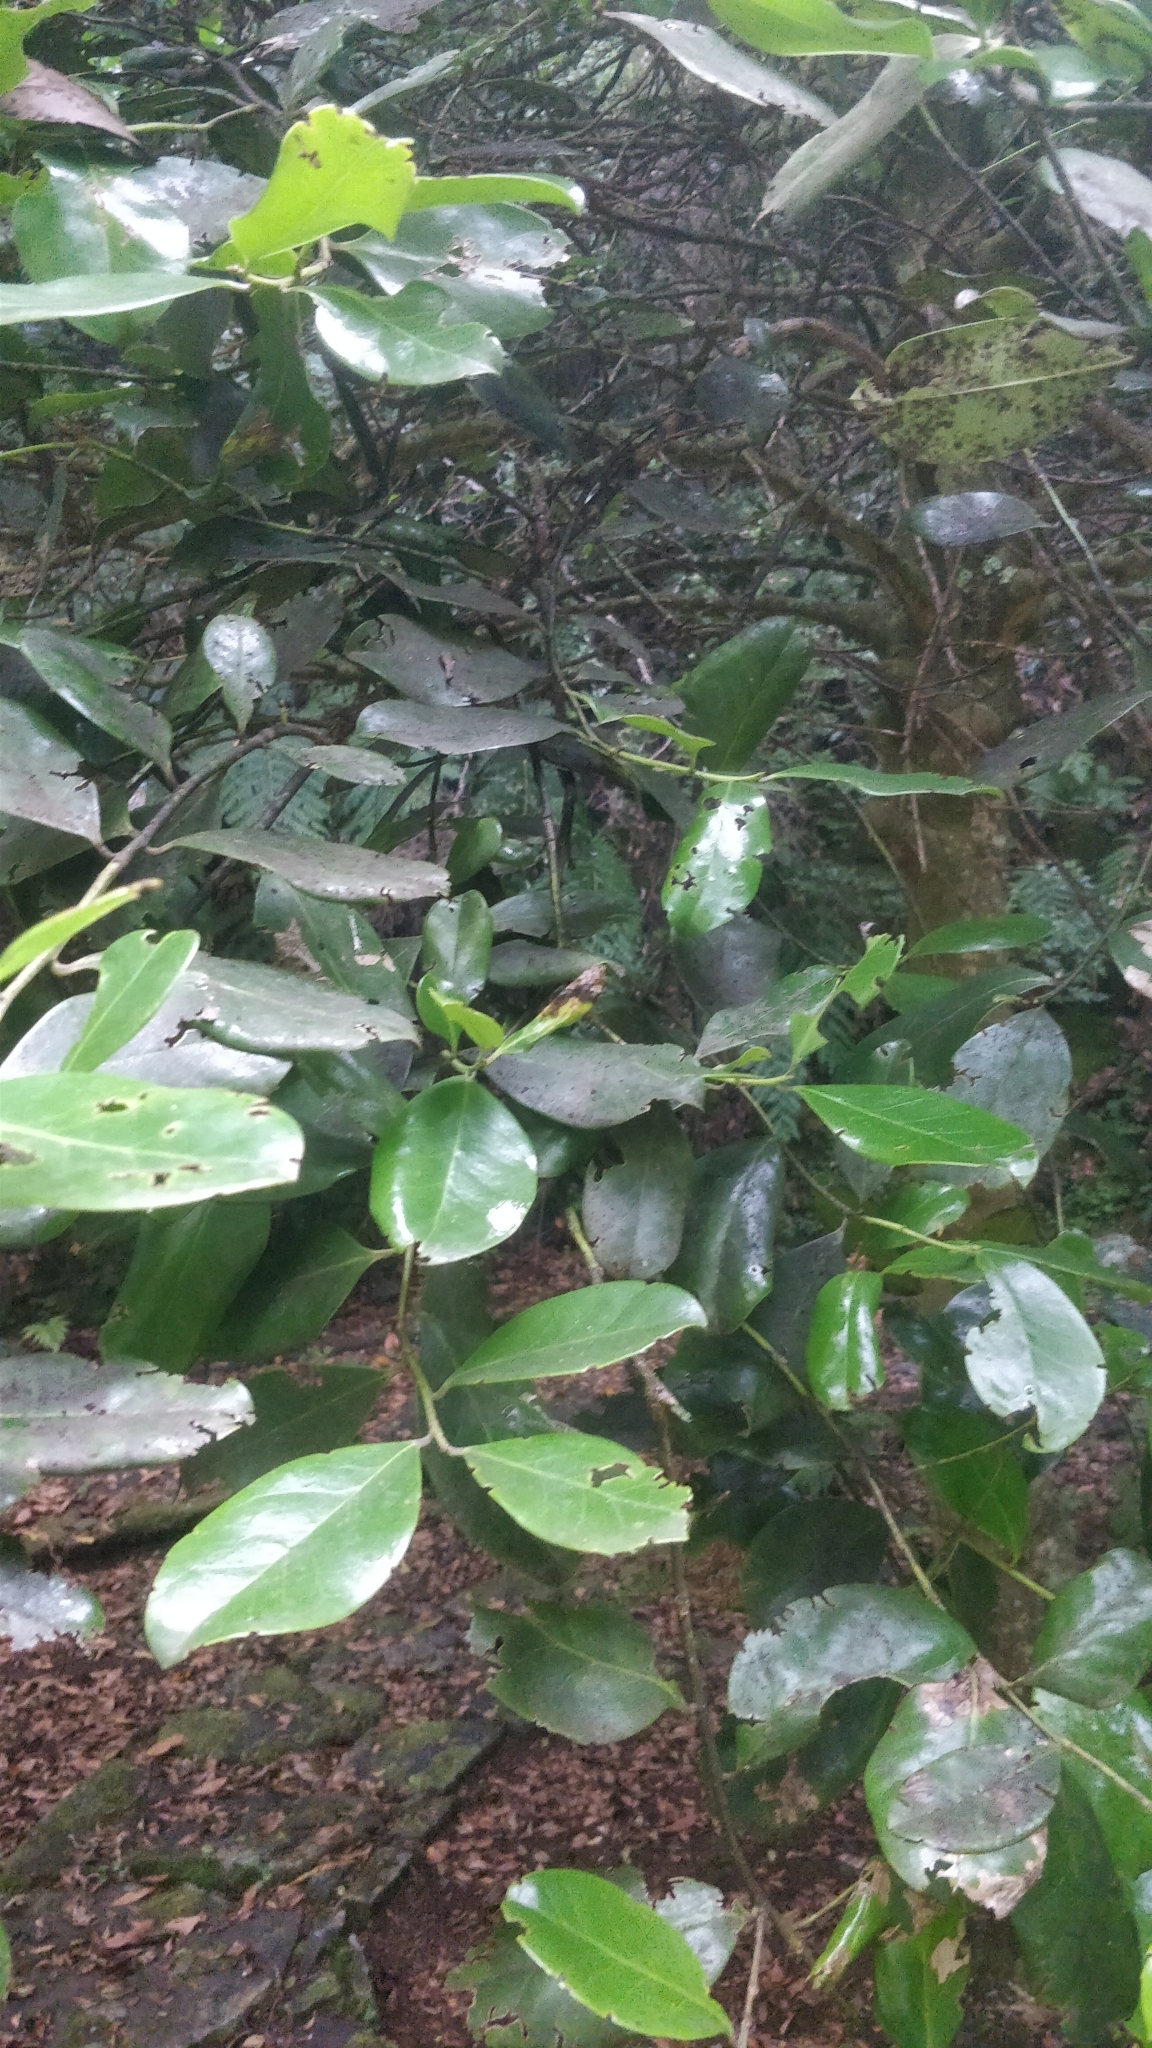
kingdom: Plantae
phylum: Tracheophyta
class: Magnoliopsida
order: Aquifoliales
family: Aquifoliaceae
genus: Ilex
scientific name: Ilex perado
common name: Madeira holly
